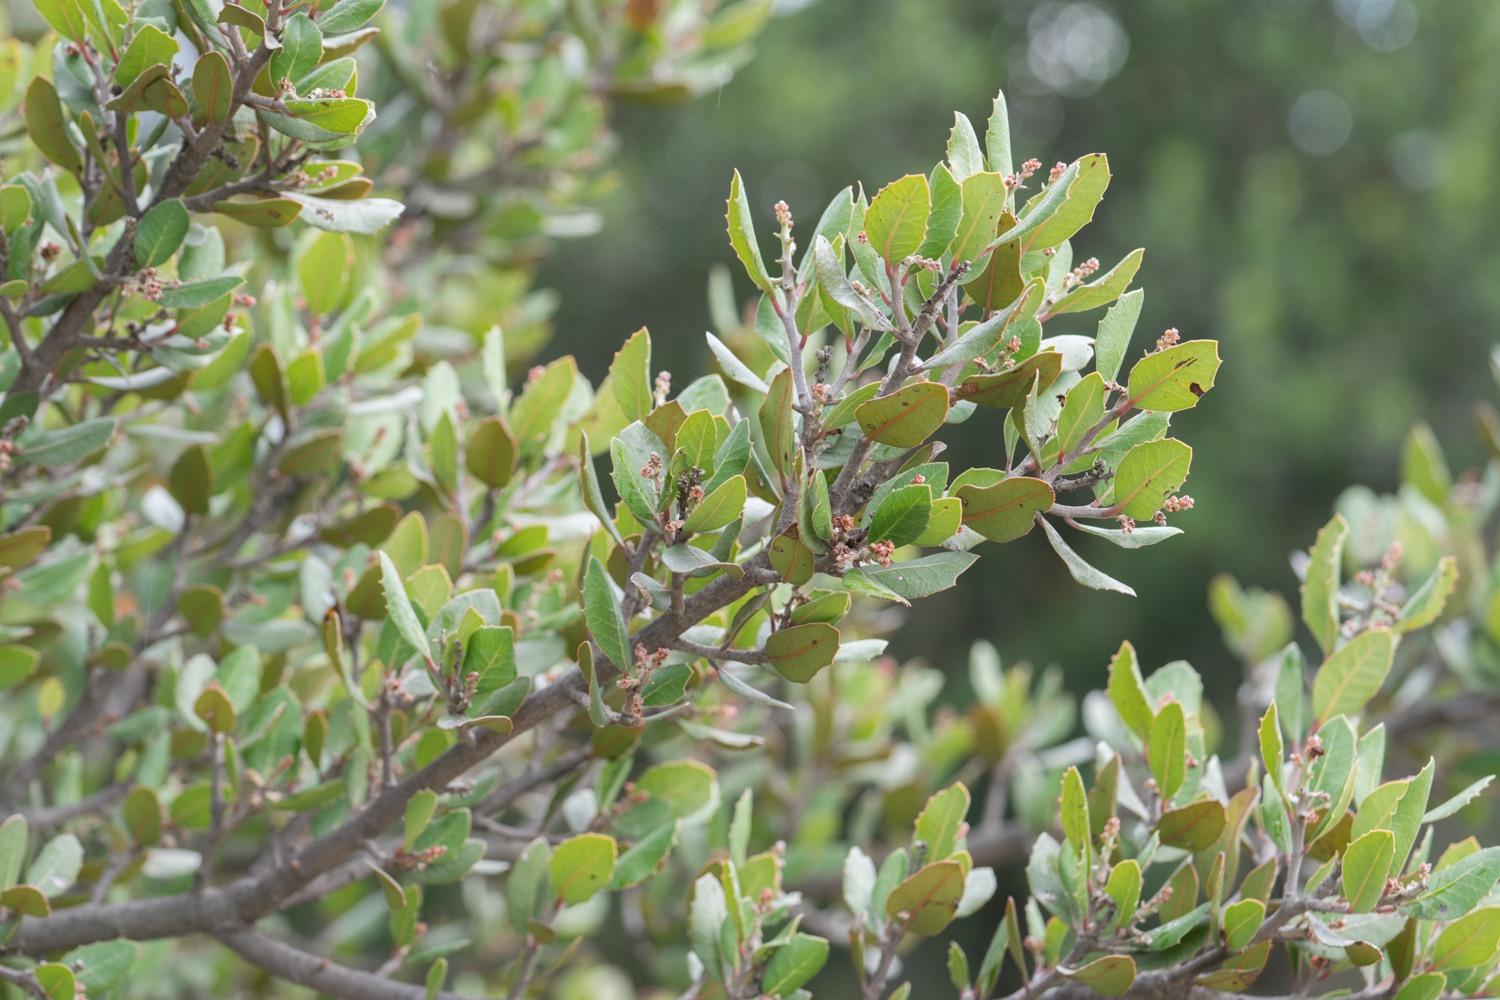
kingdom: Plantae
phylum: Tracheophyta
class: Magnoliopsida
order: Sapindales
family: Anacardiaceae
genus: Rhus
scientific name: Rhus integrifolia
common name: Lemonade sumac
